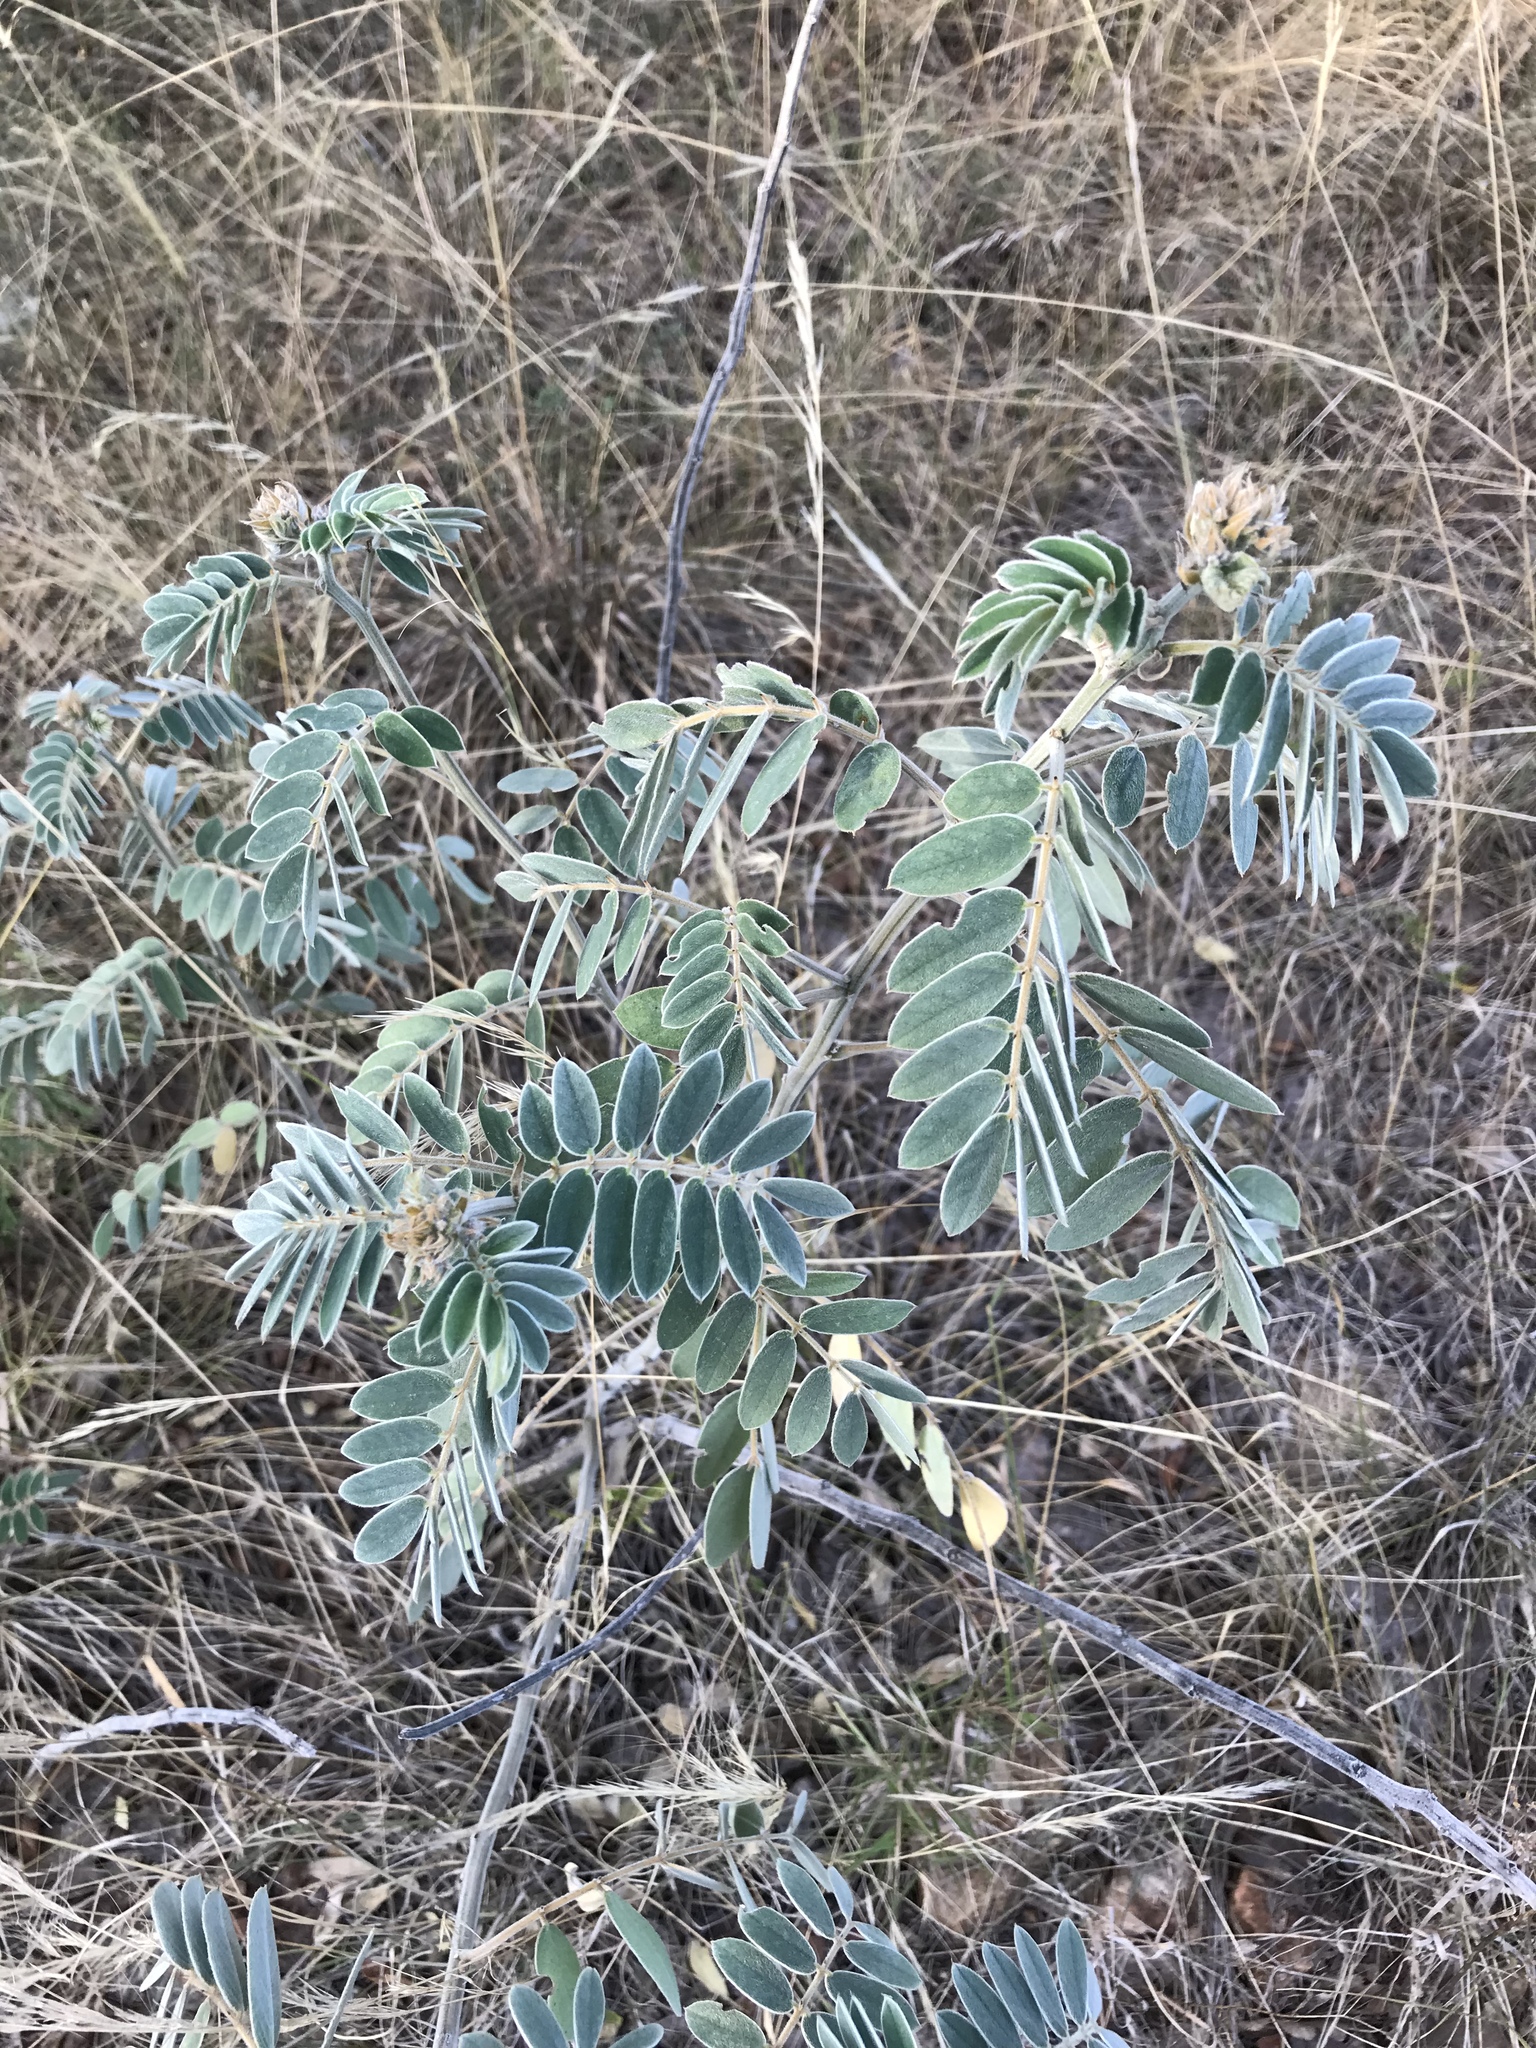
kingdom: Plantae
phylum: Tracheophyta
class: Magnoliopsida
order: Fabales
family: Fabaceae
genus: Senna
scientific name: Senna lindheimeriana
